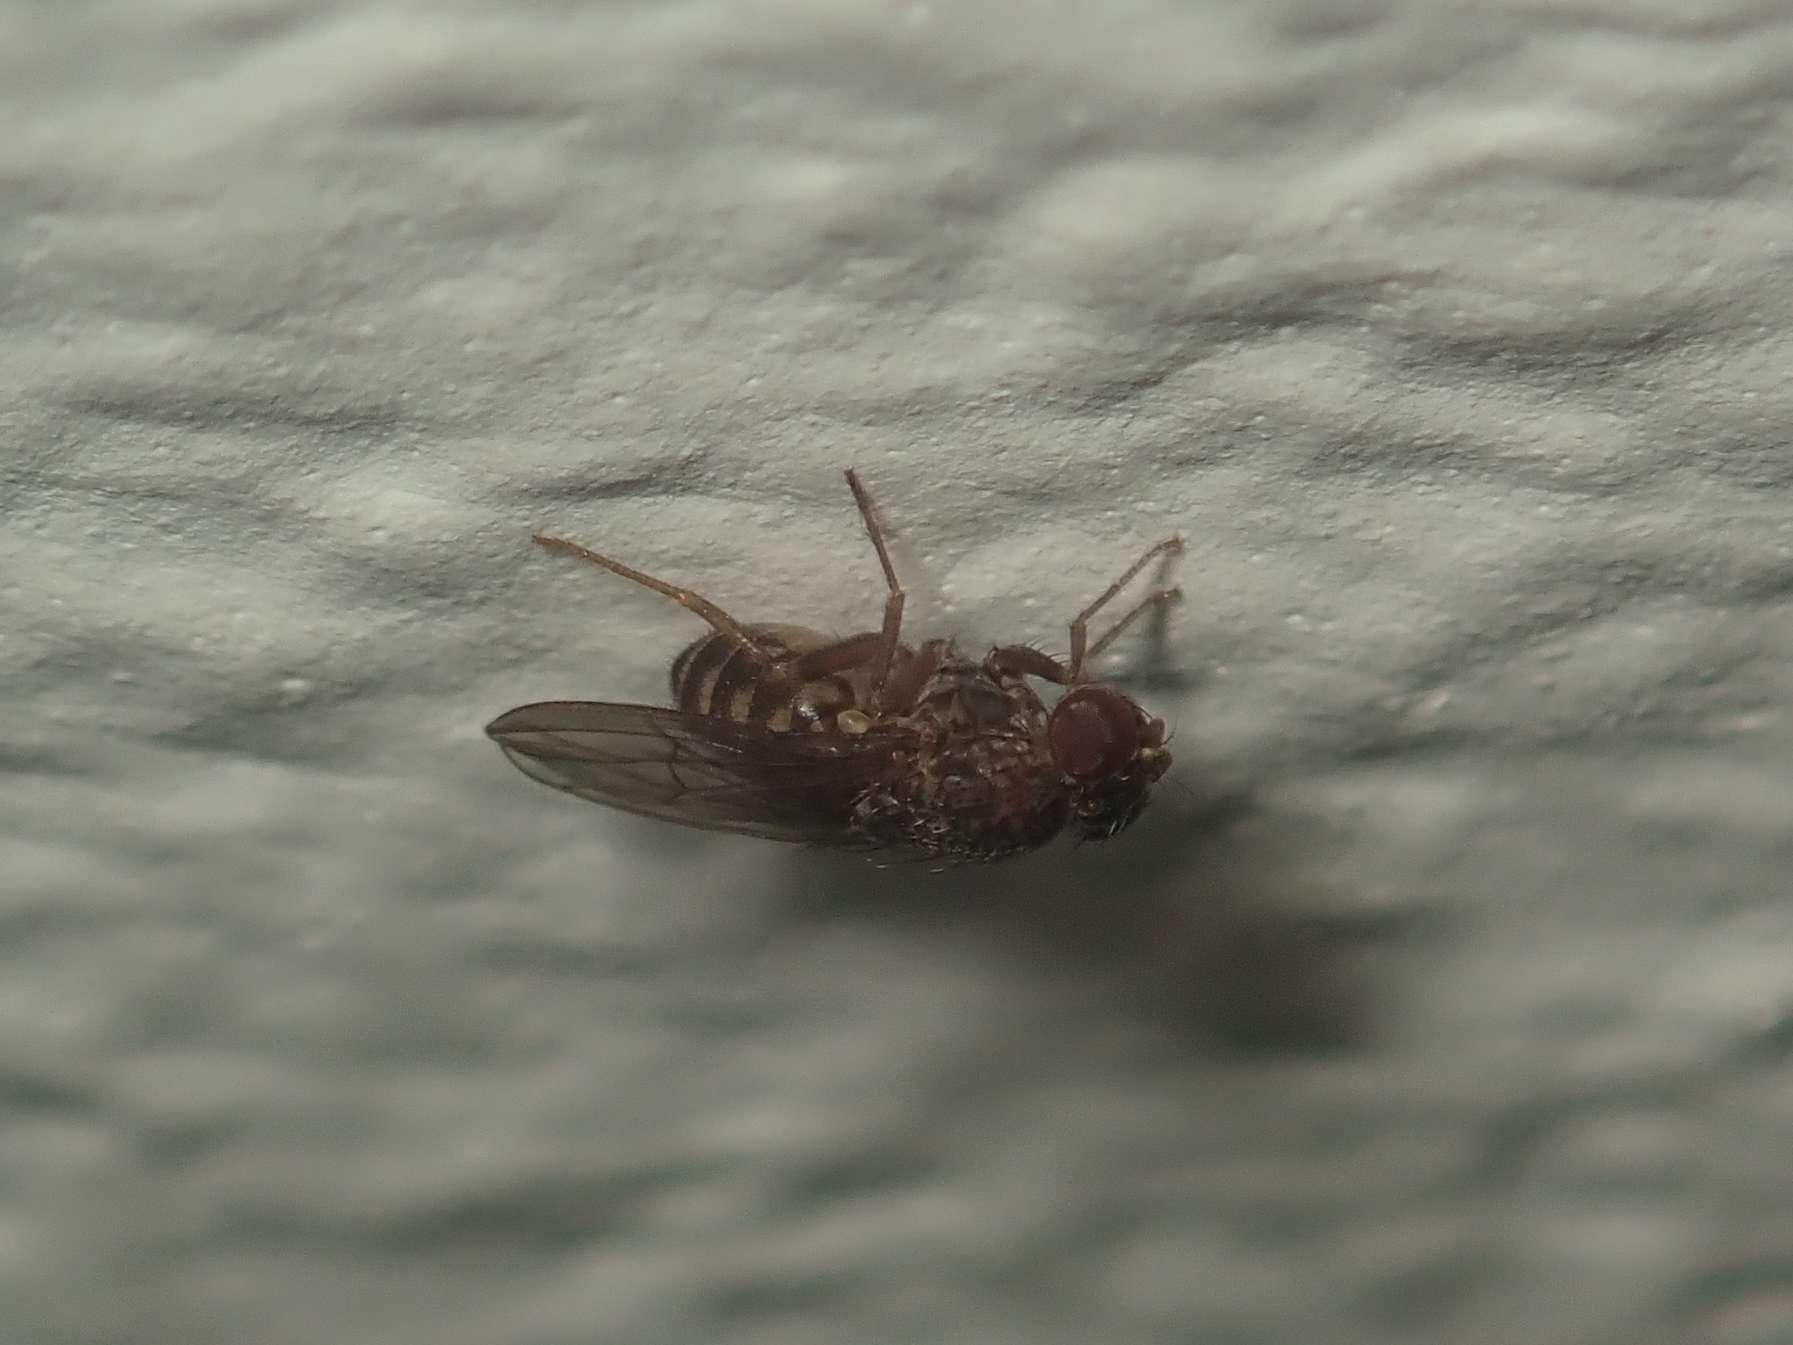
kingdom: Animalia
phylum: Arthropoda
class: Insecta
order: Diptera
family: Drosophilidae
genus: Drosophila
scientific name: Drosophila repleta
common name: Pomace fly
